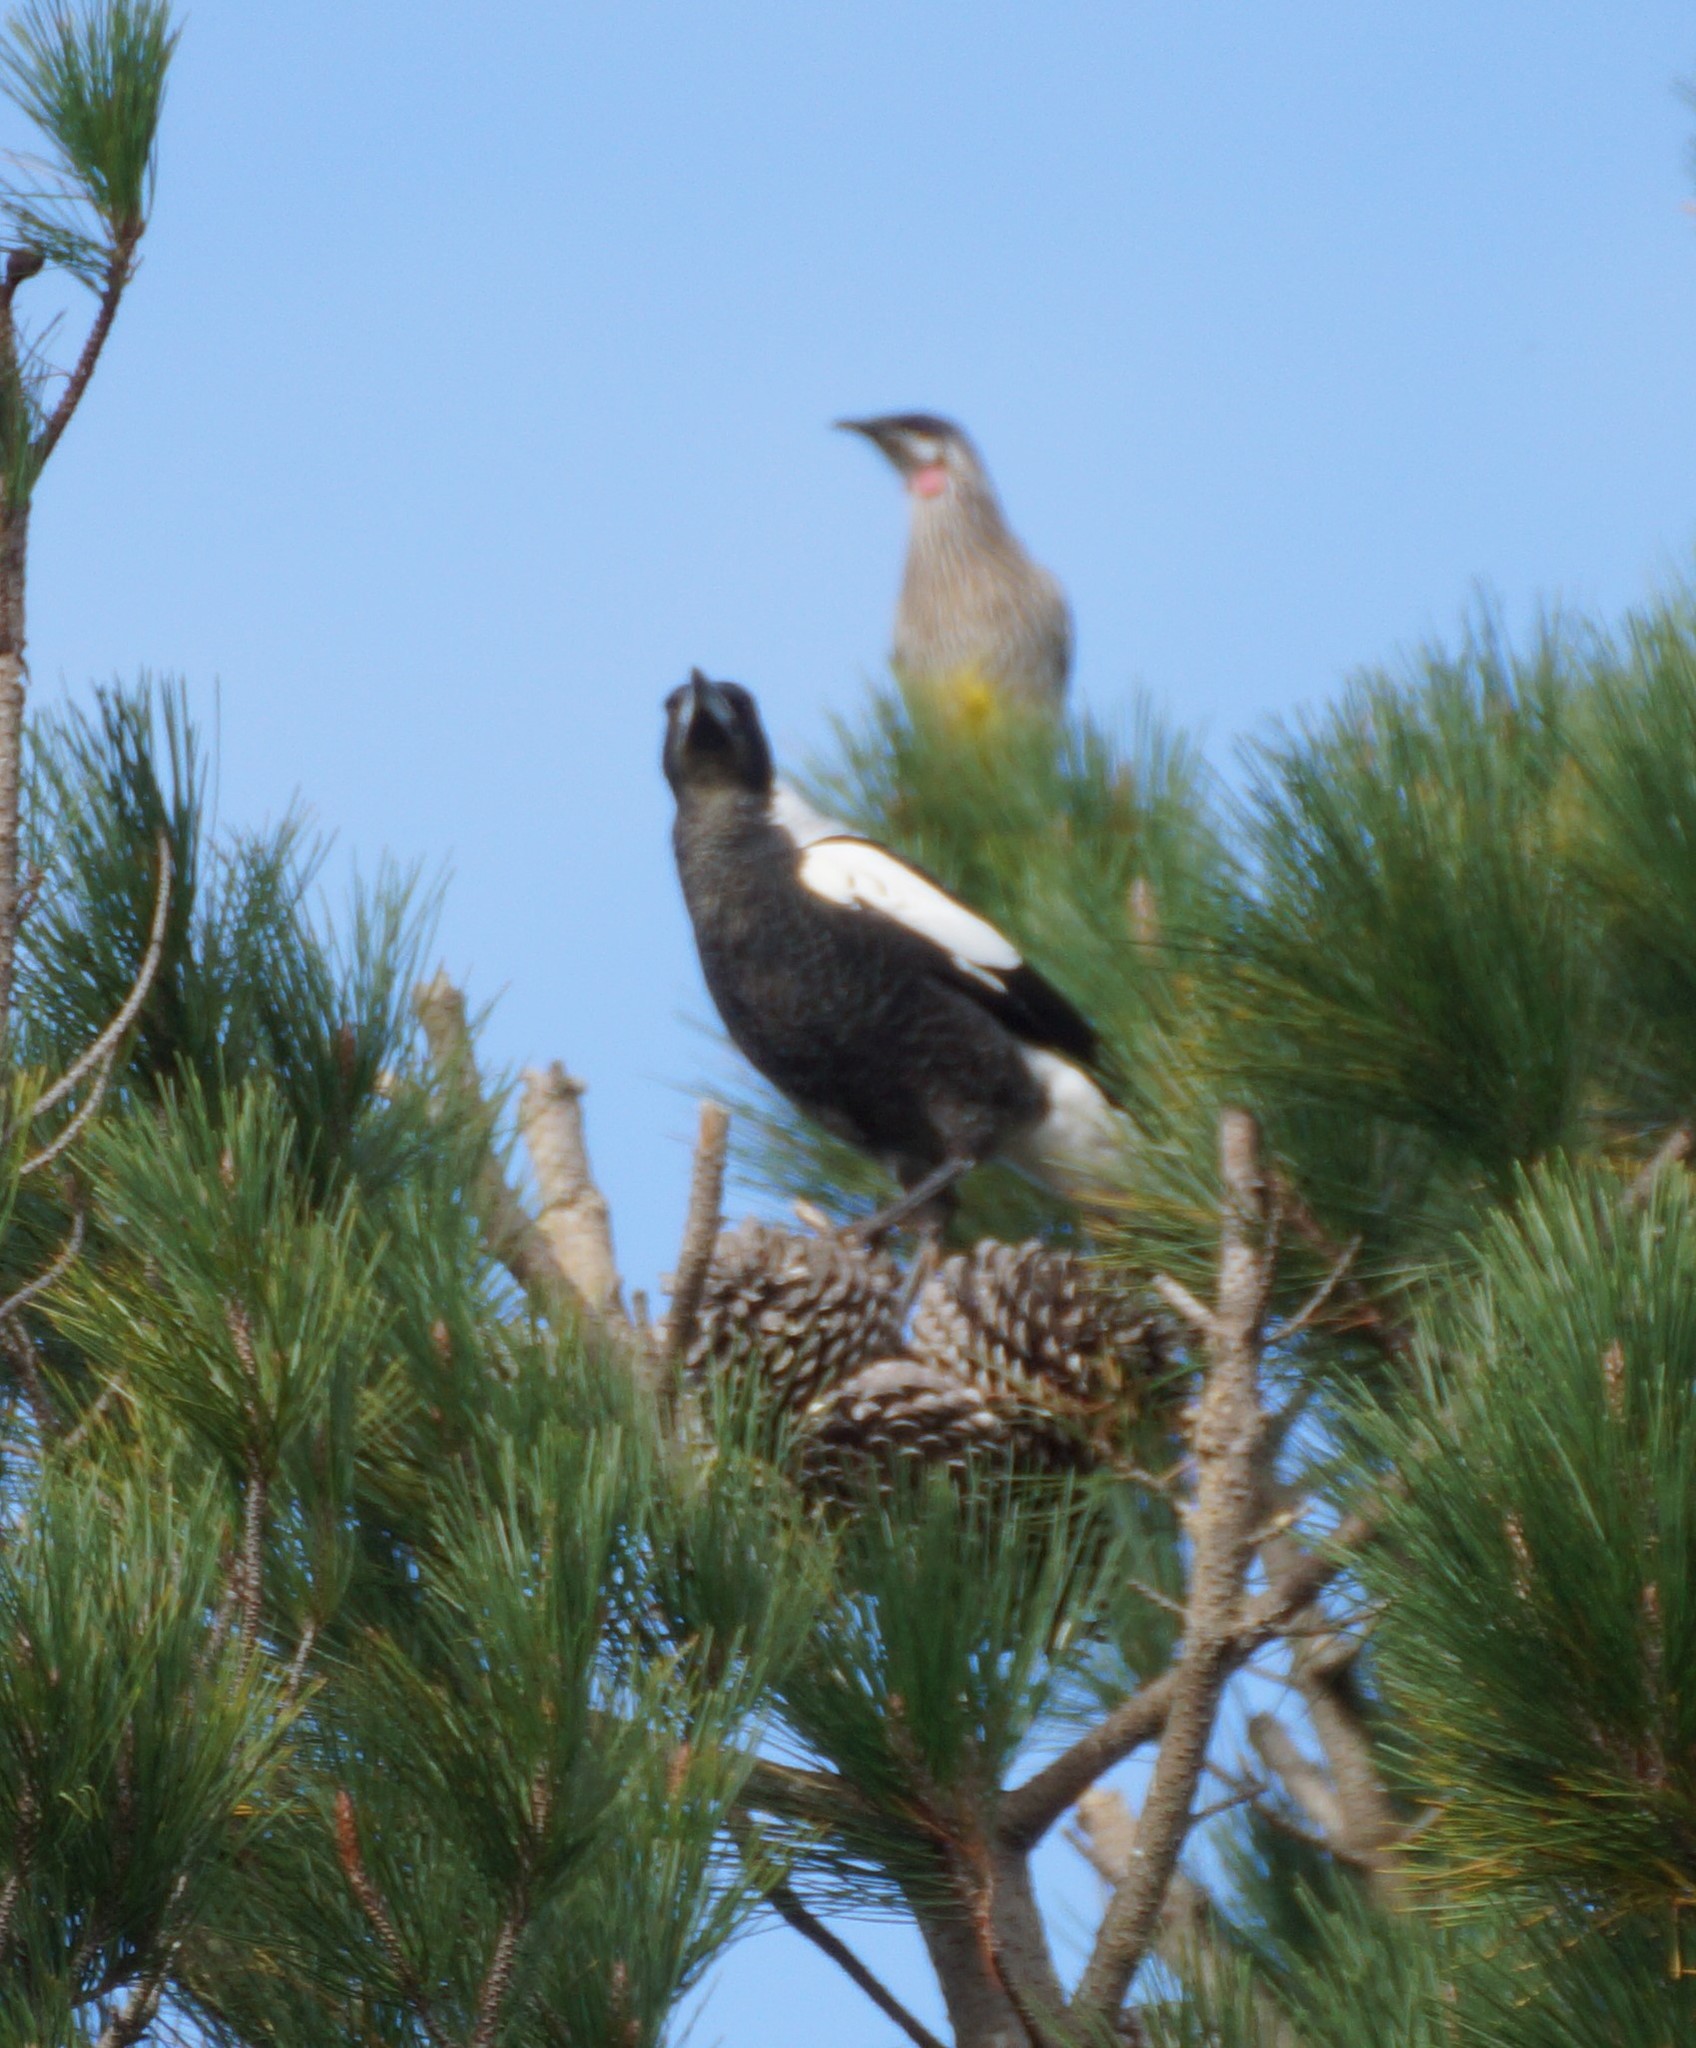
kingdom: Animalia
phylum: Chordata
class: Aves
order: Passeriformes
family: Cracticidae
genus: Gymnorhina
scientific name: Gymnorhina tibicen
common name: Australian magpie
